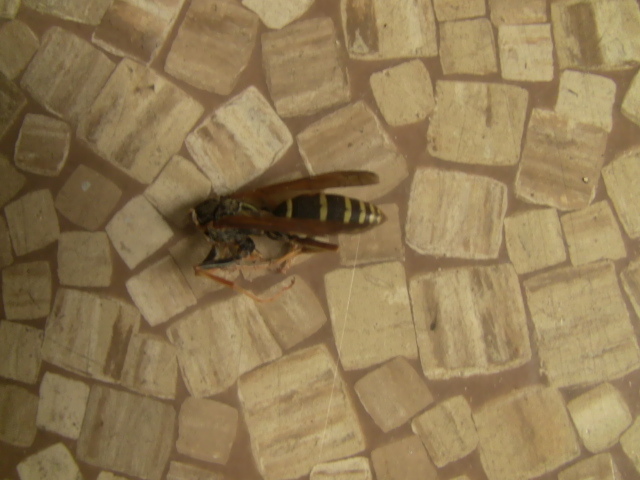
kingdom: Animalia
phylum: Arthropoda
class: Insecta
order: Hymenoptera
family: Eumenidae
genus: Polistes
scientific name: Polistes fuscatus
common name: Dark paper wasp
